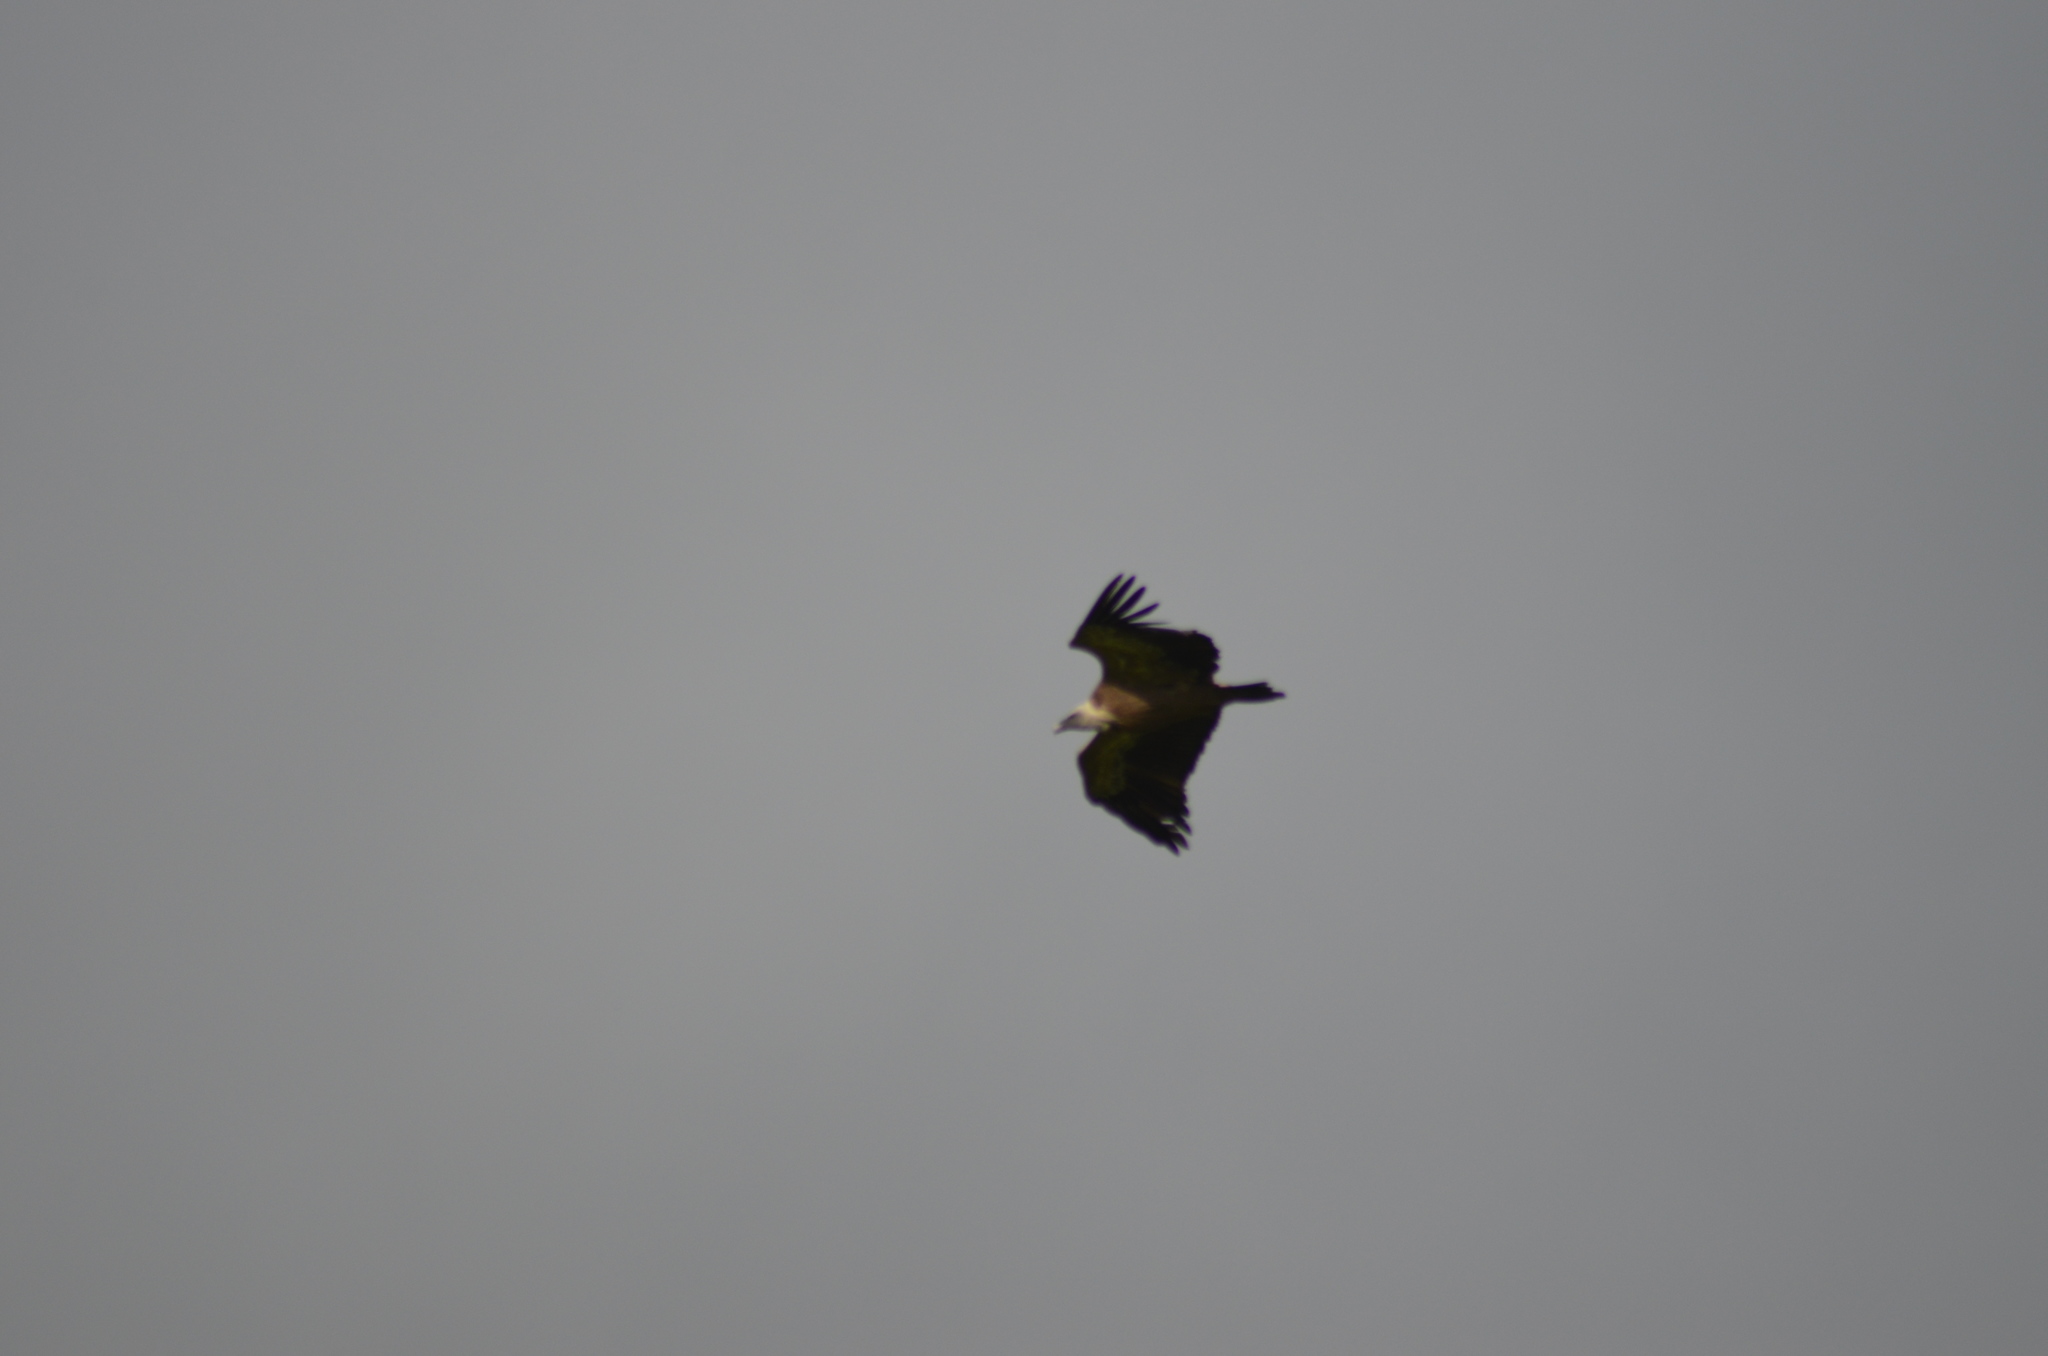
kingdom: Animalia
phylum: Chordata
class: Aves
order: Accipitriformes
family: Accipitridae
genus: Gyps
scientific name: Gyps fulvus
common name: Griffon vulture
